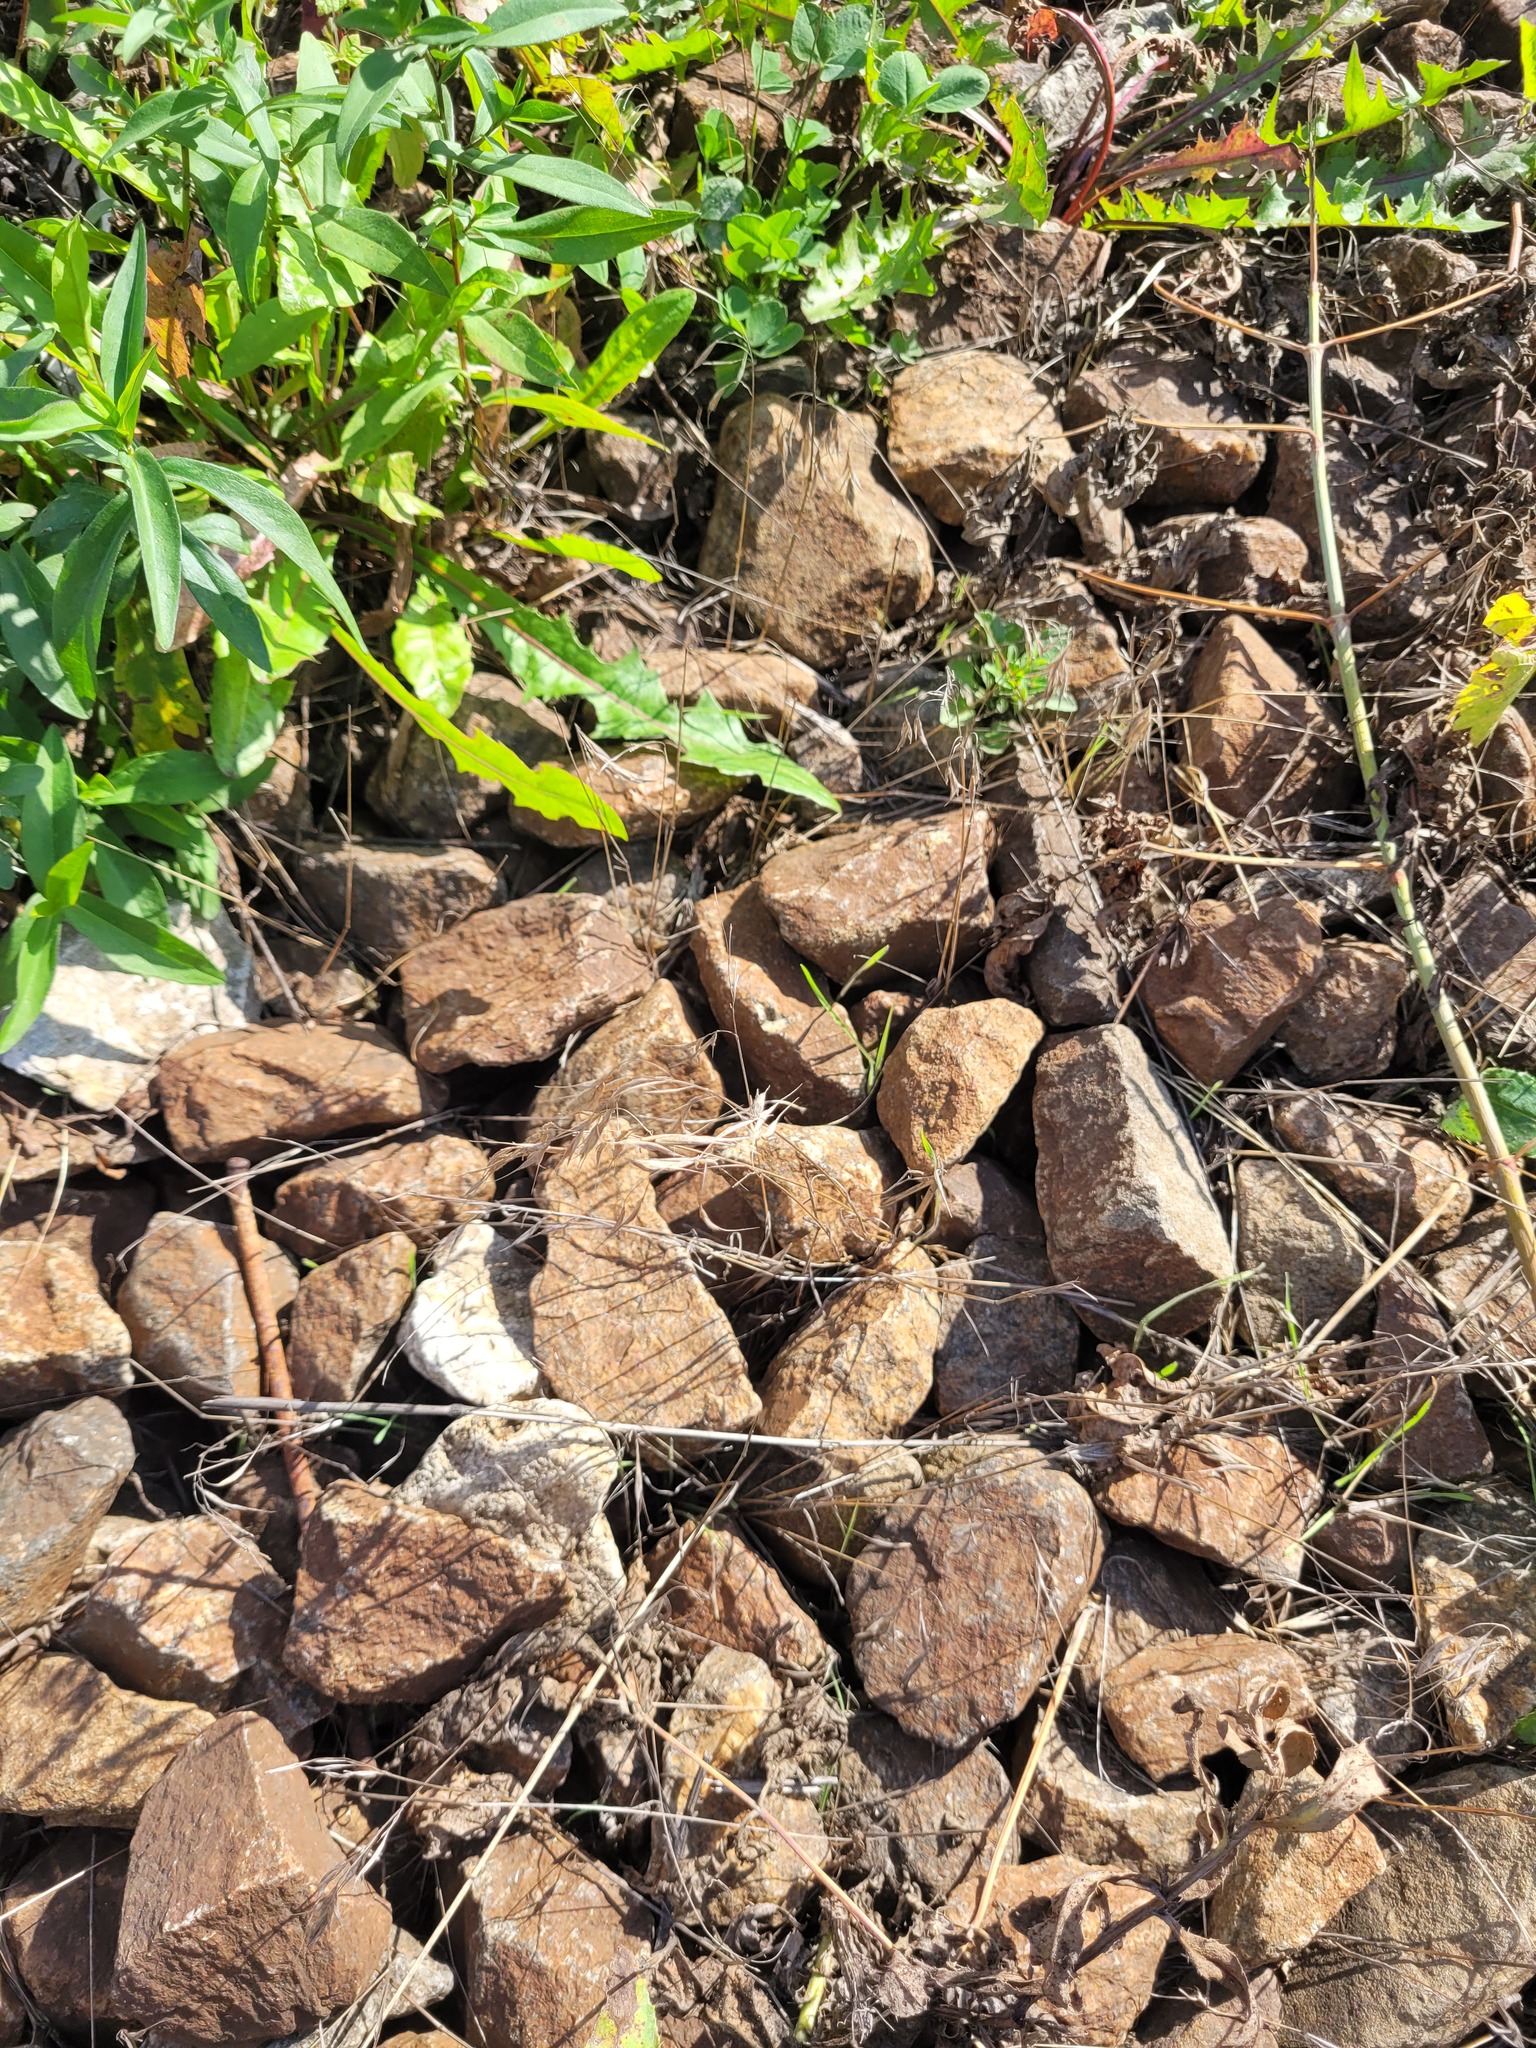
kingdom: Plantae
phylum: Tracheophyta
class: Liliopsida
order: Poales
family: Poaceae
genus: Bromus
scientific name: Bromus tectorum
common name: Cheatgrass
